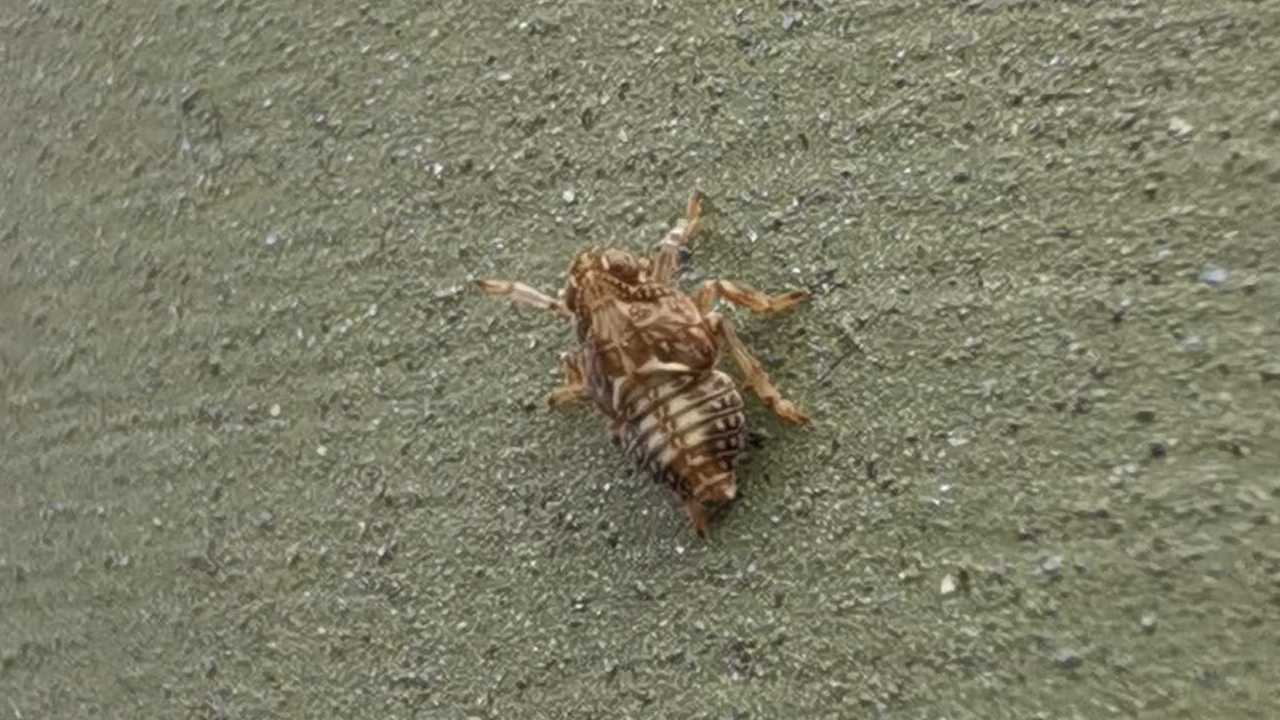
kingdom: Animalia
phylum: Arthropoda
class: Insecta
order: Hemiptera
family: Issidae
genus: Issus
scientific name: Issus
